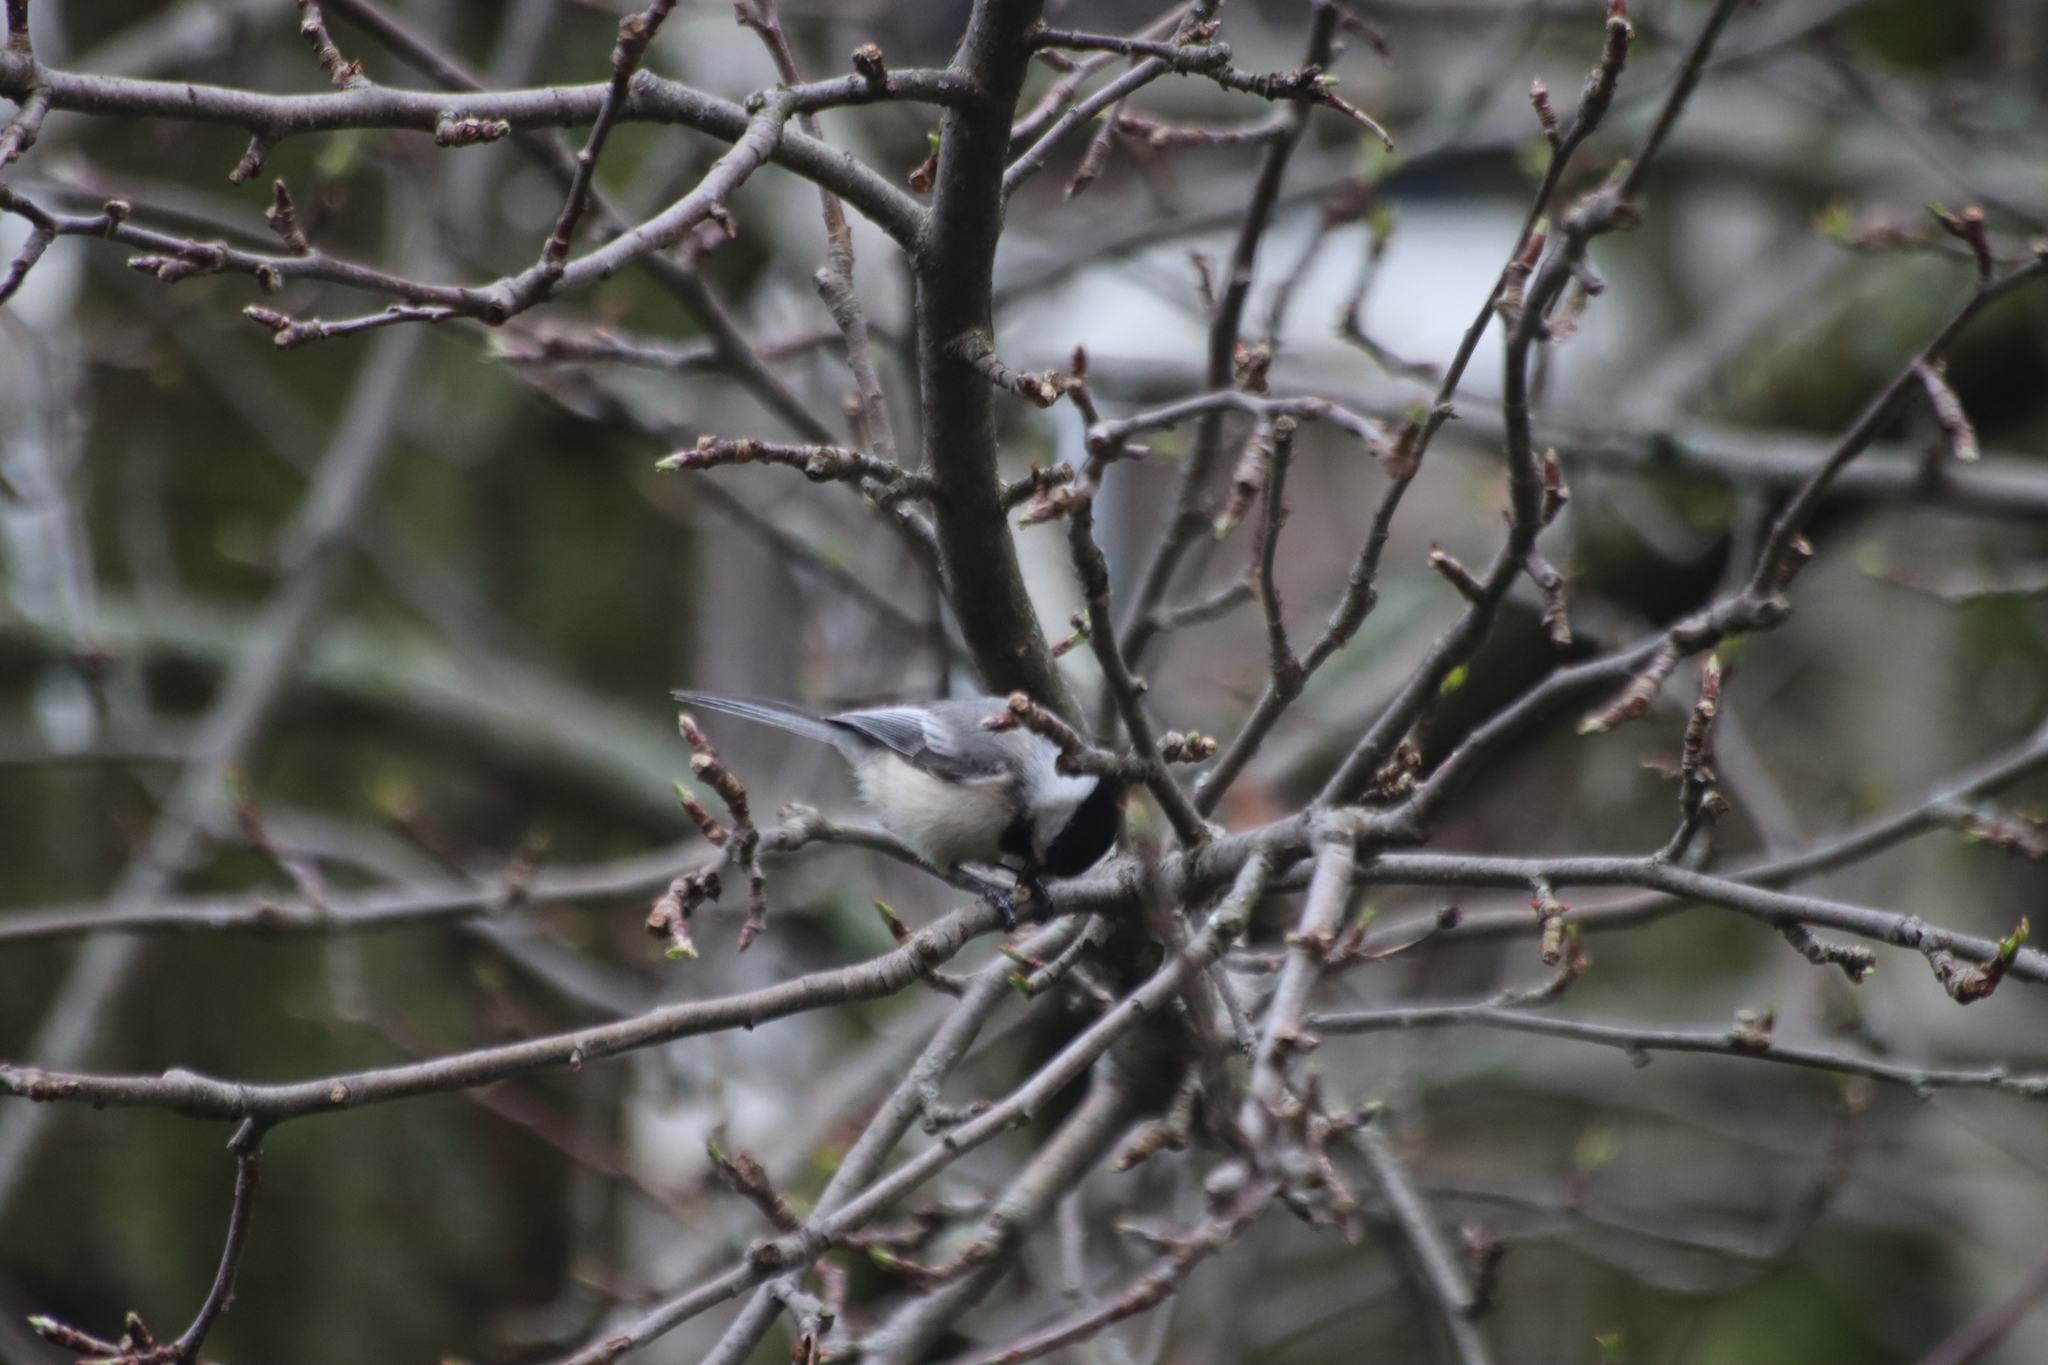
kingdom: Animalia
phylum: Chordata
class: Aves
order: Passeriformes
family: Paridae
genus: Poecile
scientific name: Poecile atricapillus
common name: Black-capped chickadee
